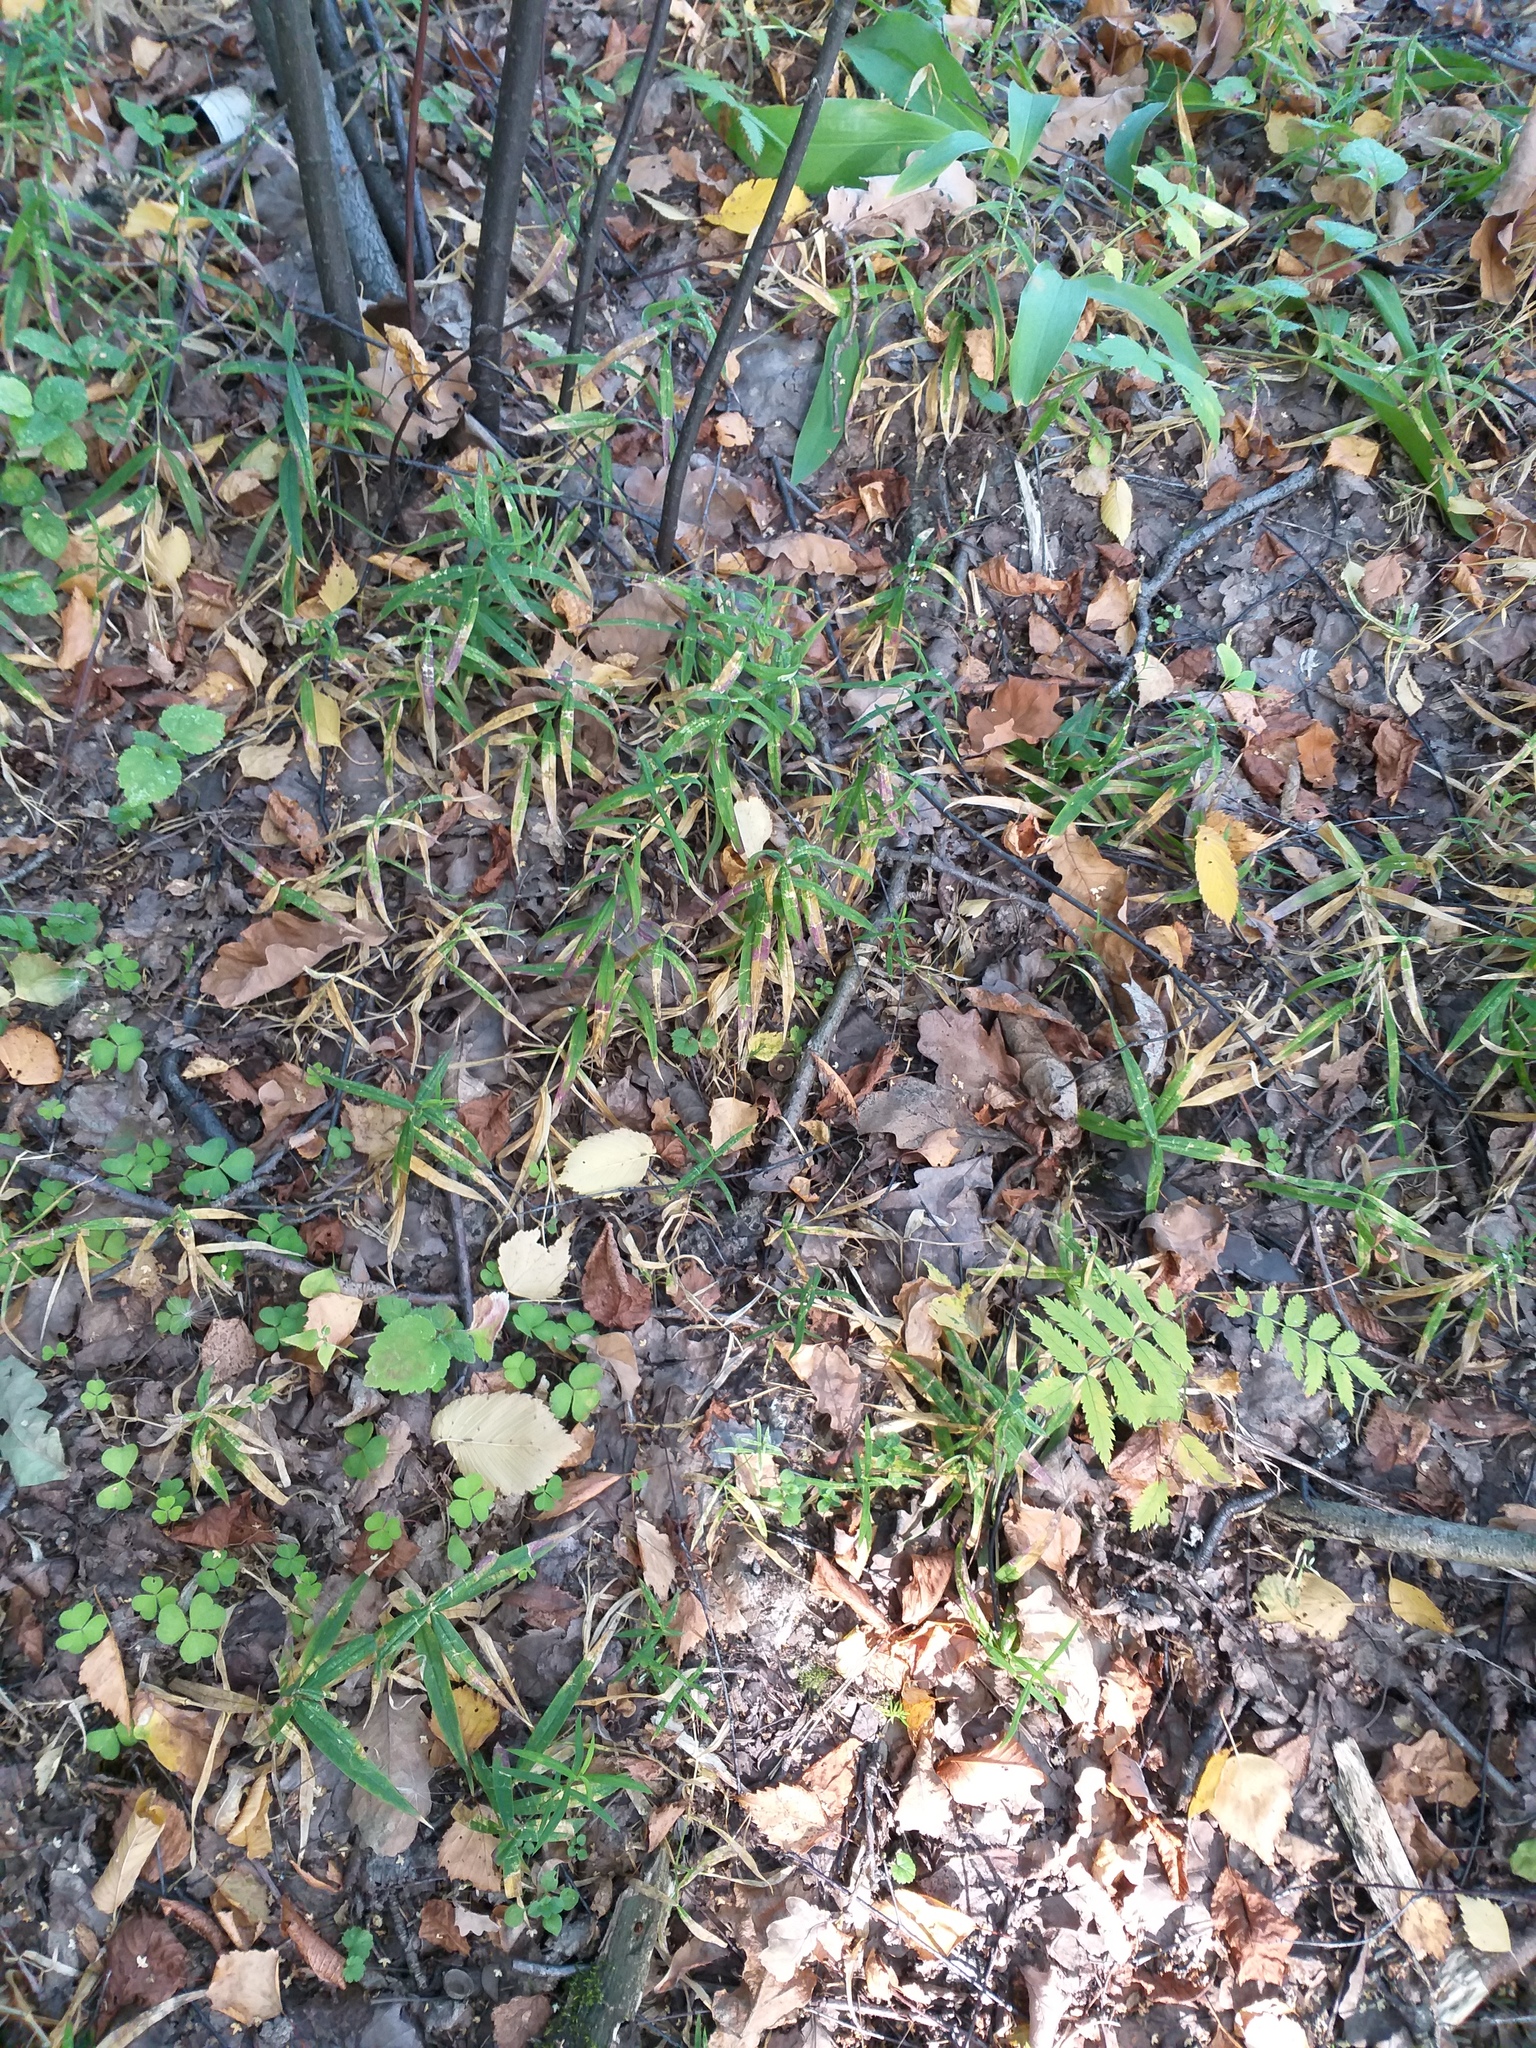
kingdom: Plantae
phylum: Tracheophyta
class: Magnoliopsida
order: Caryophyllales
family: Caryophyllaceae
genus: Rabelera
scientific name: Rabelera holostea
